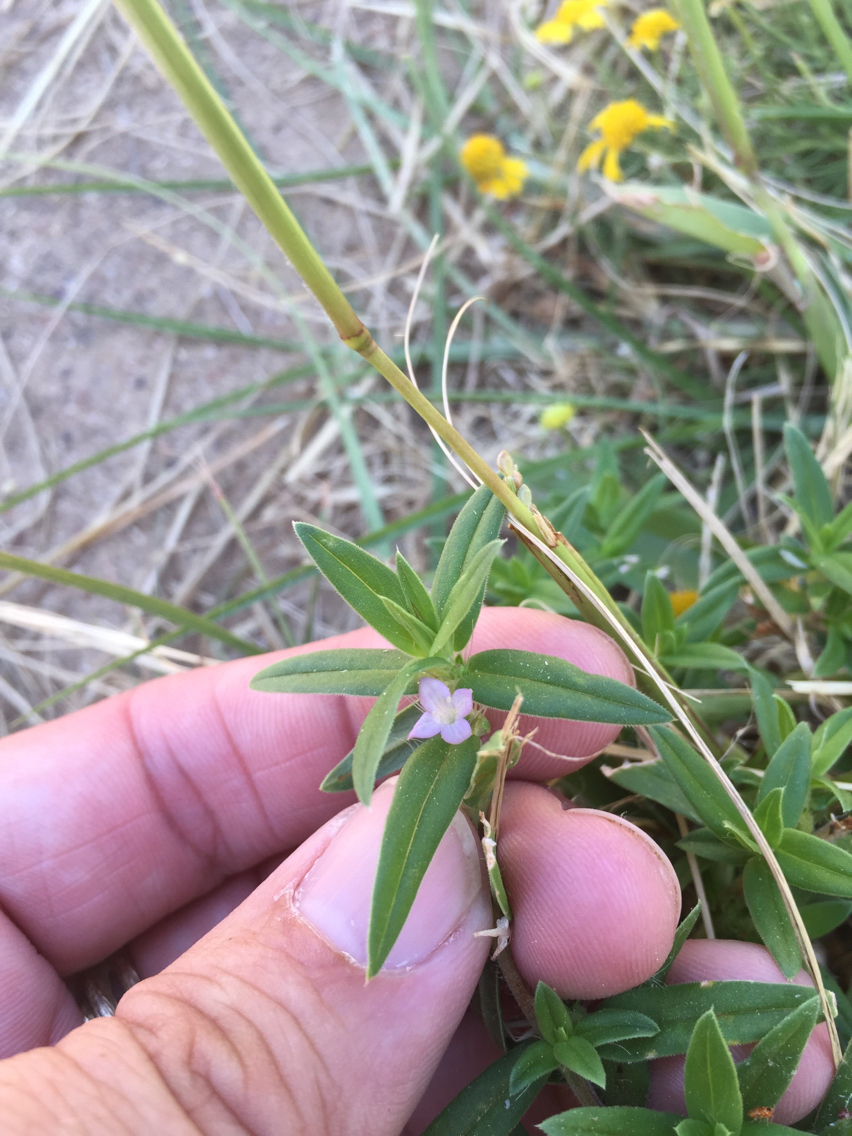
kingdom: Plantae
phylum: Tracheophyta
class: Magnoliopsida
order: Gentianales
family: Rubiaceae
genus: Hexasepalum
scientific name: Hexasepalum teres
